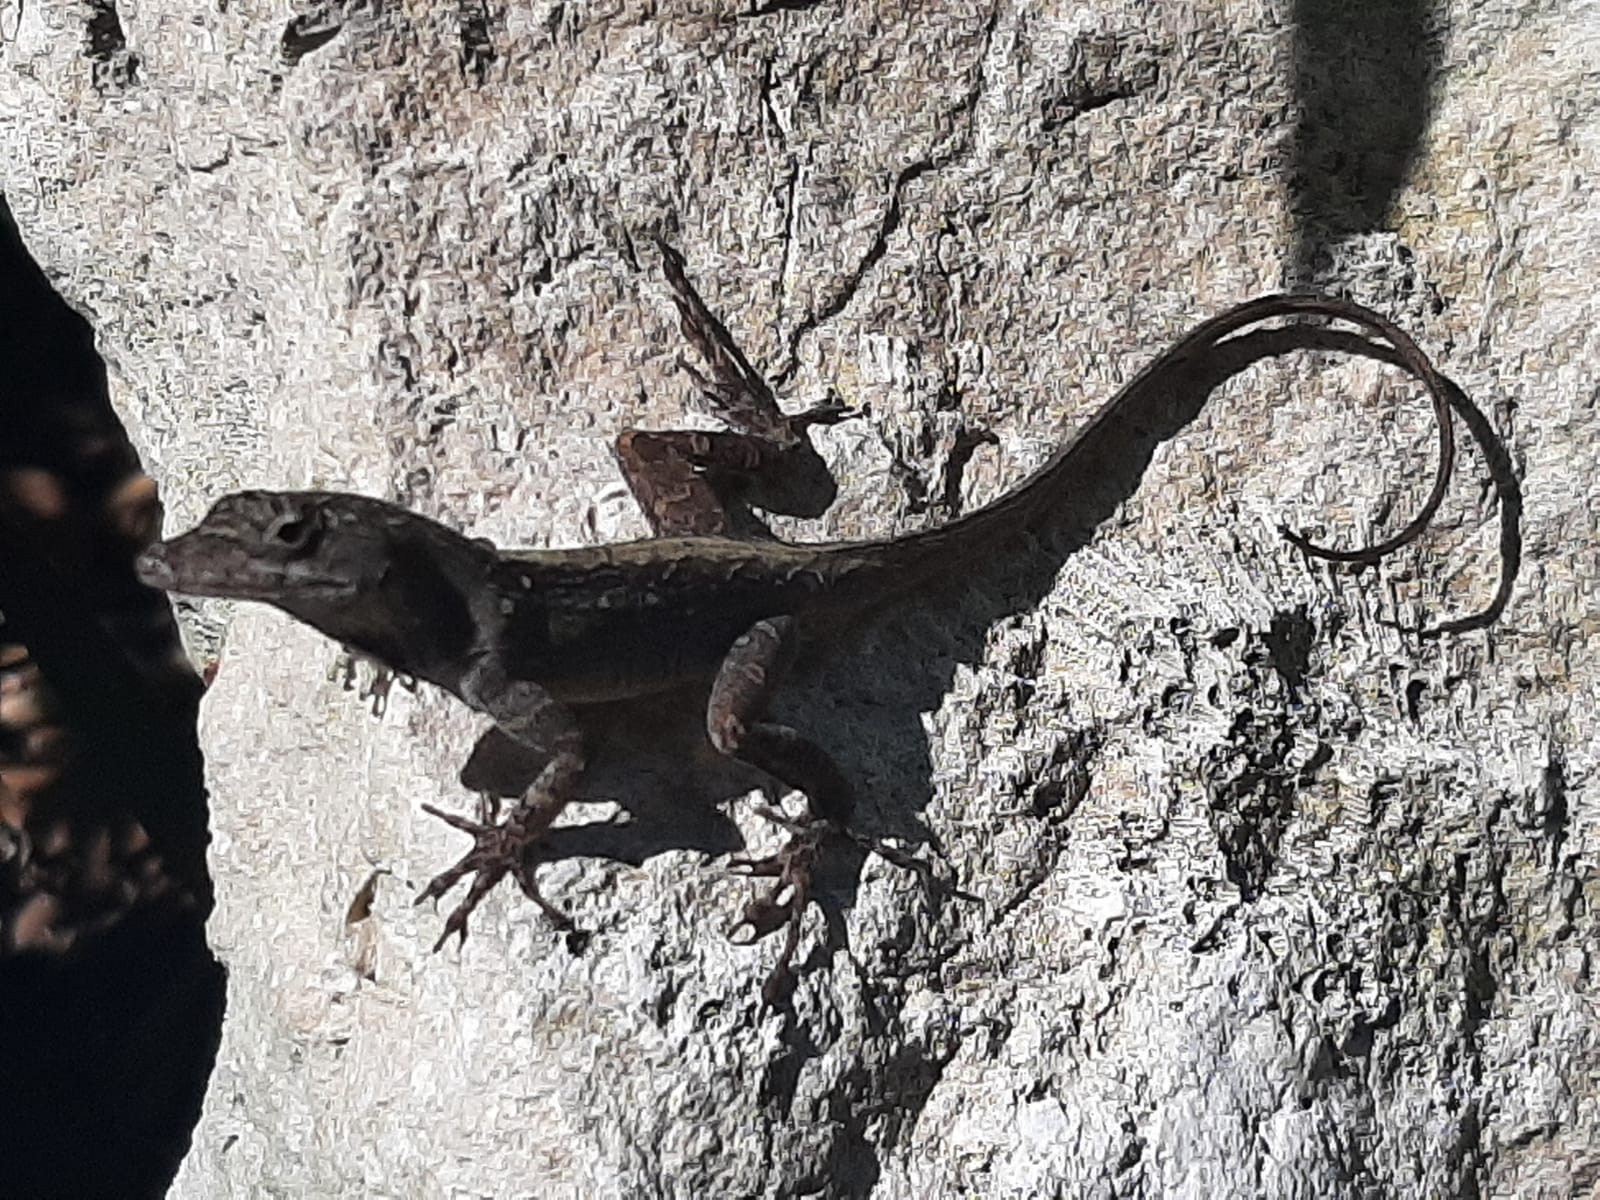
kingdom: Animalia
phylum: Chordata
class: Squamata
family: Dactyloidae
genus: Anolis
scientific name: Anolis sagrei
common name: Brown anole
